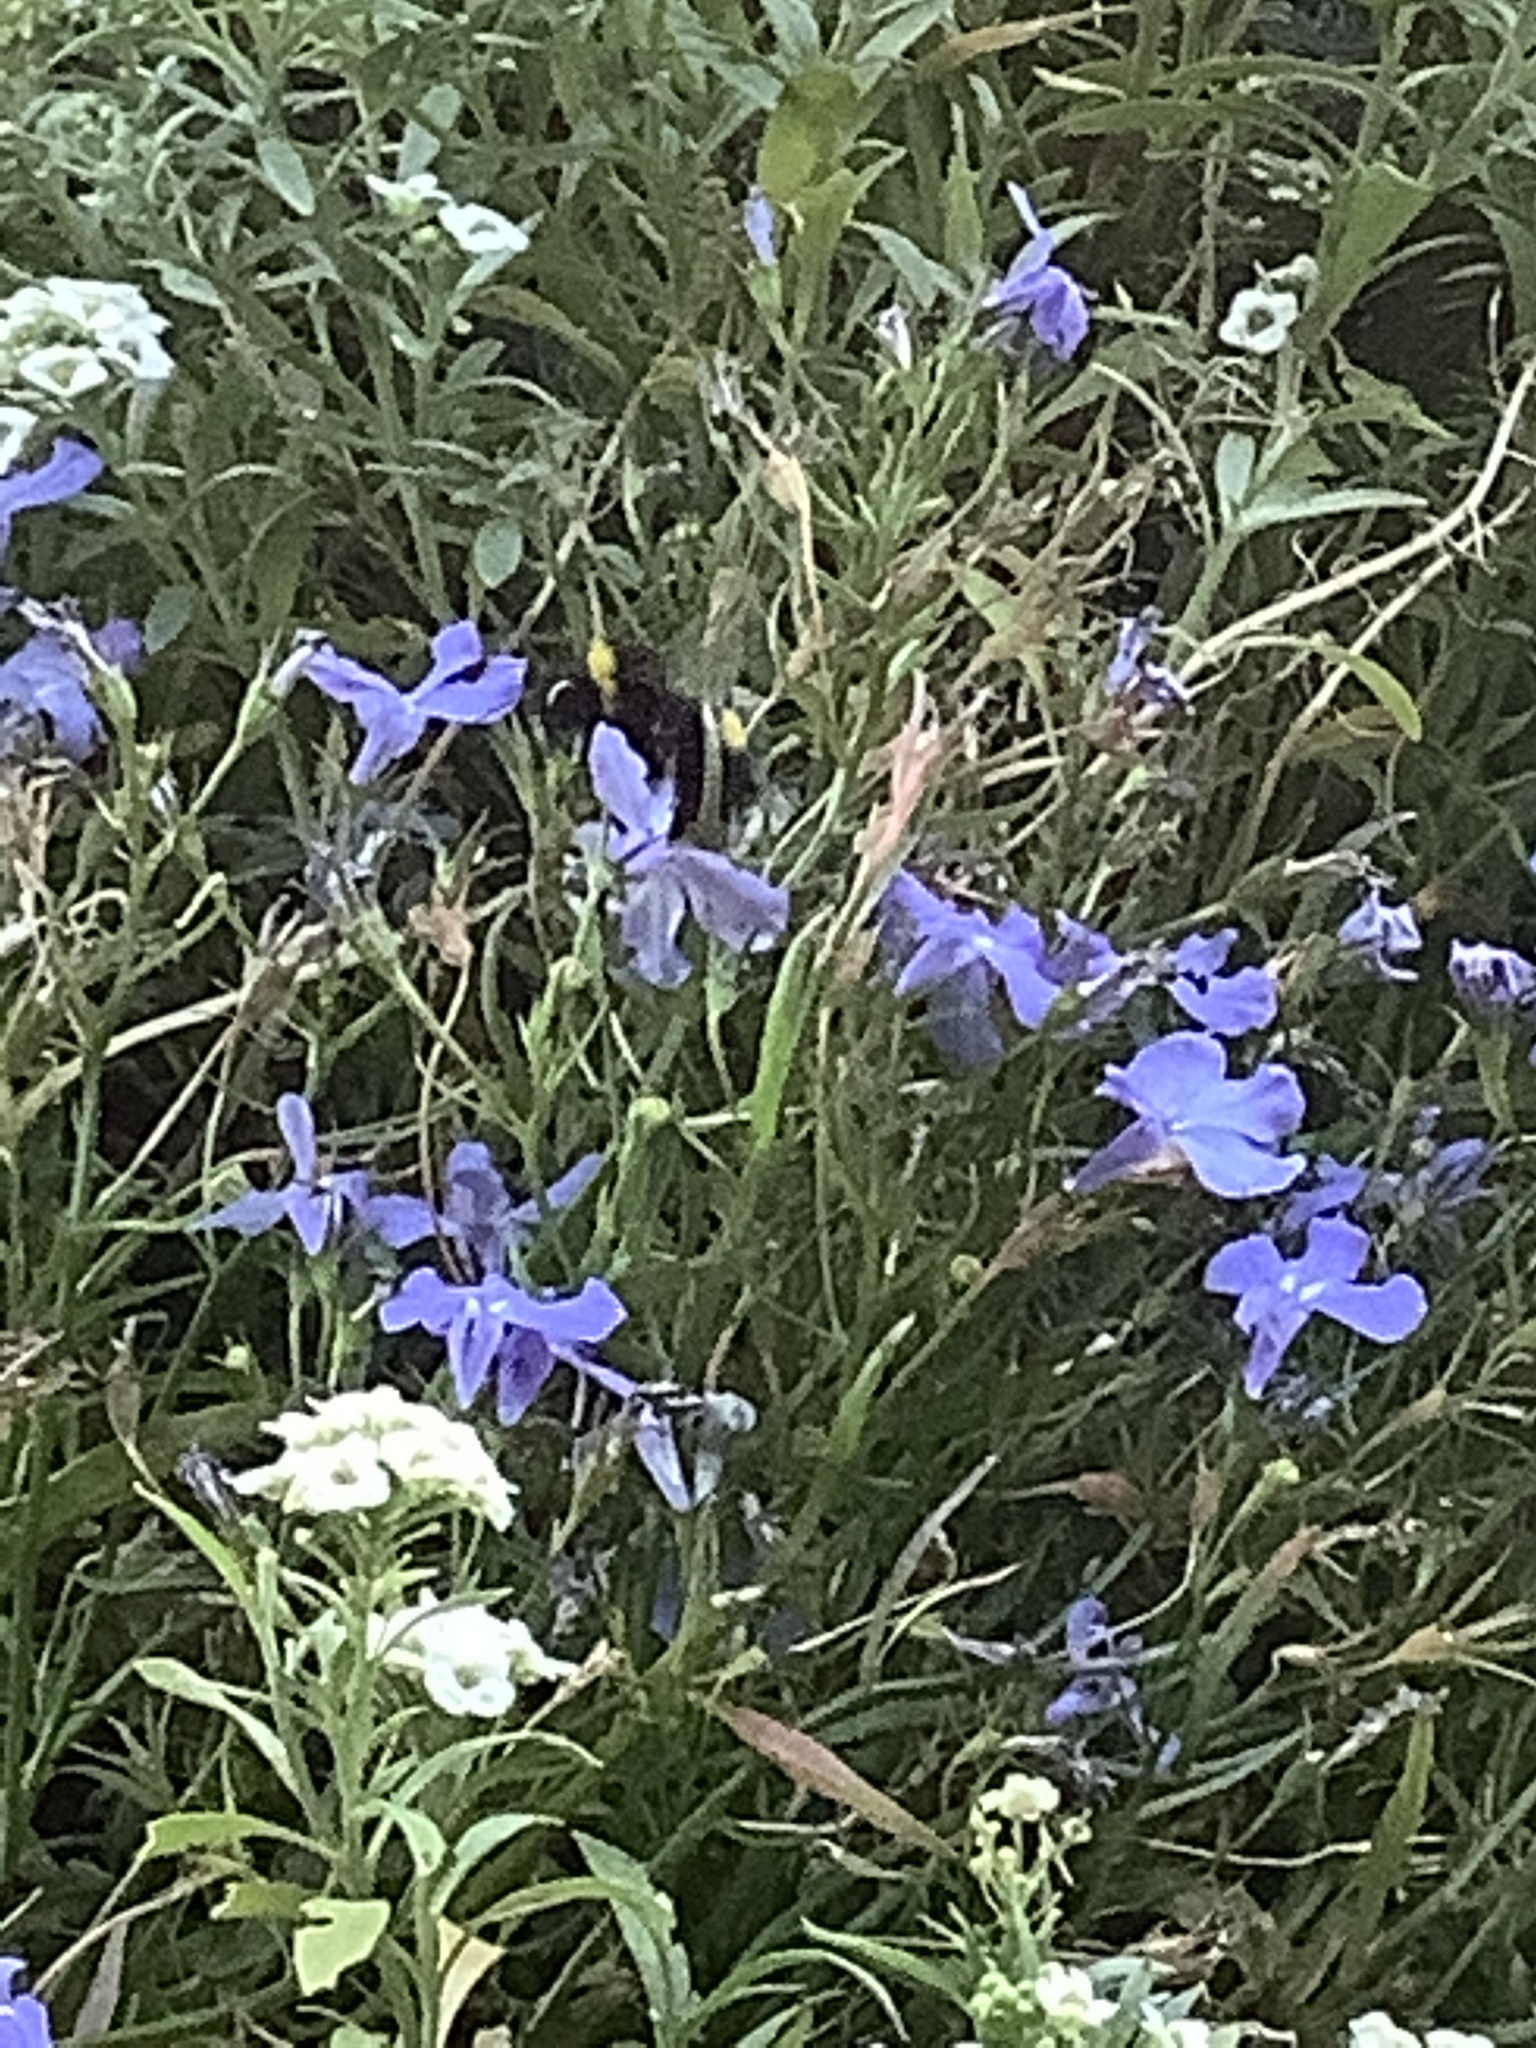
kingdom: Plantae
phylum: Tracheophyta
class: Magnoliopsida
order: Asterales
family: Campanulaceae
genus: Lobelia
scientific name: Lobelia erinus
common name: Edging lobelia
